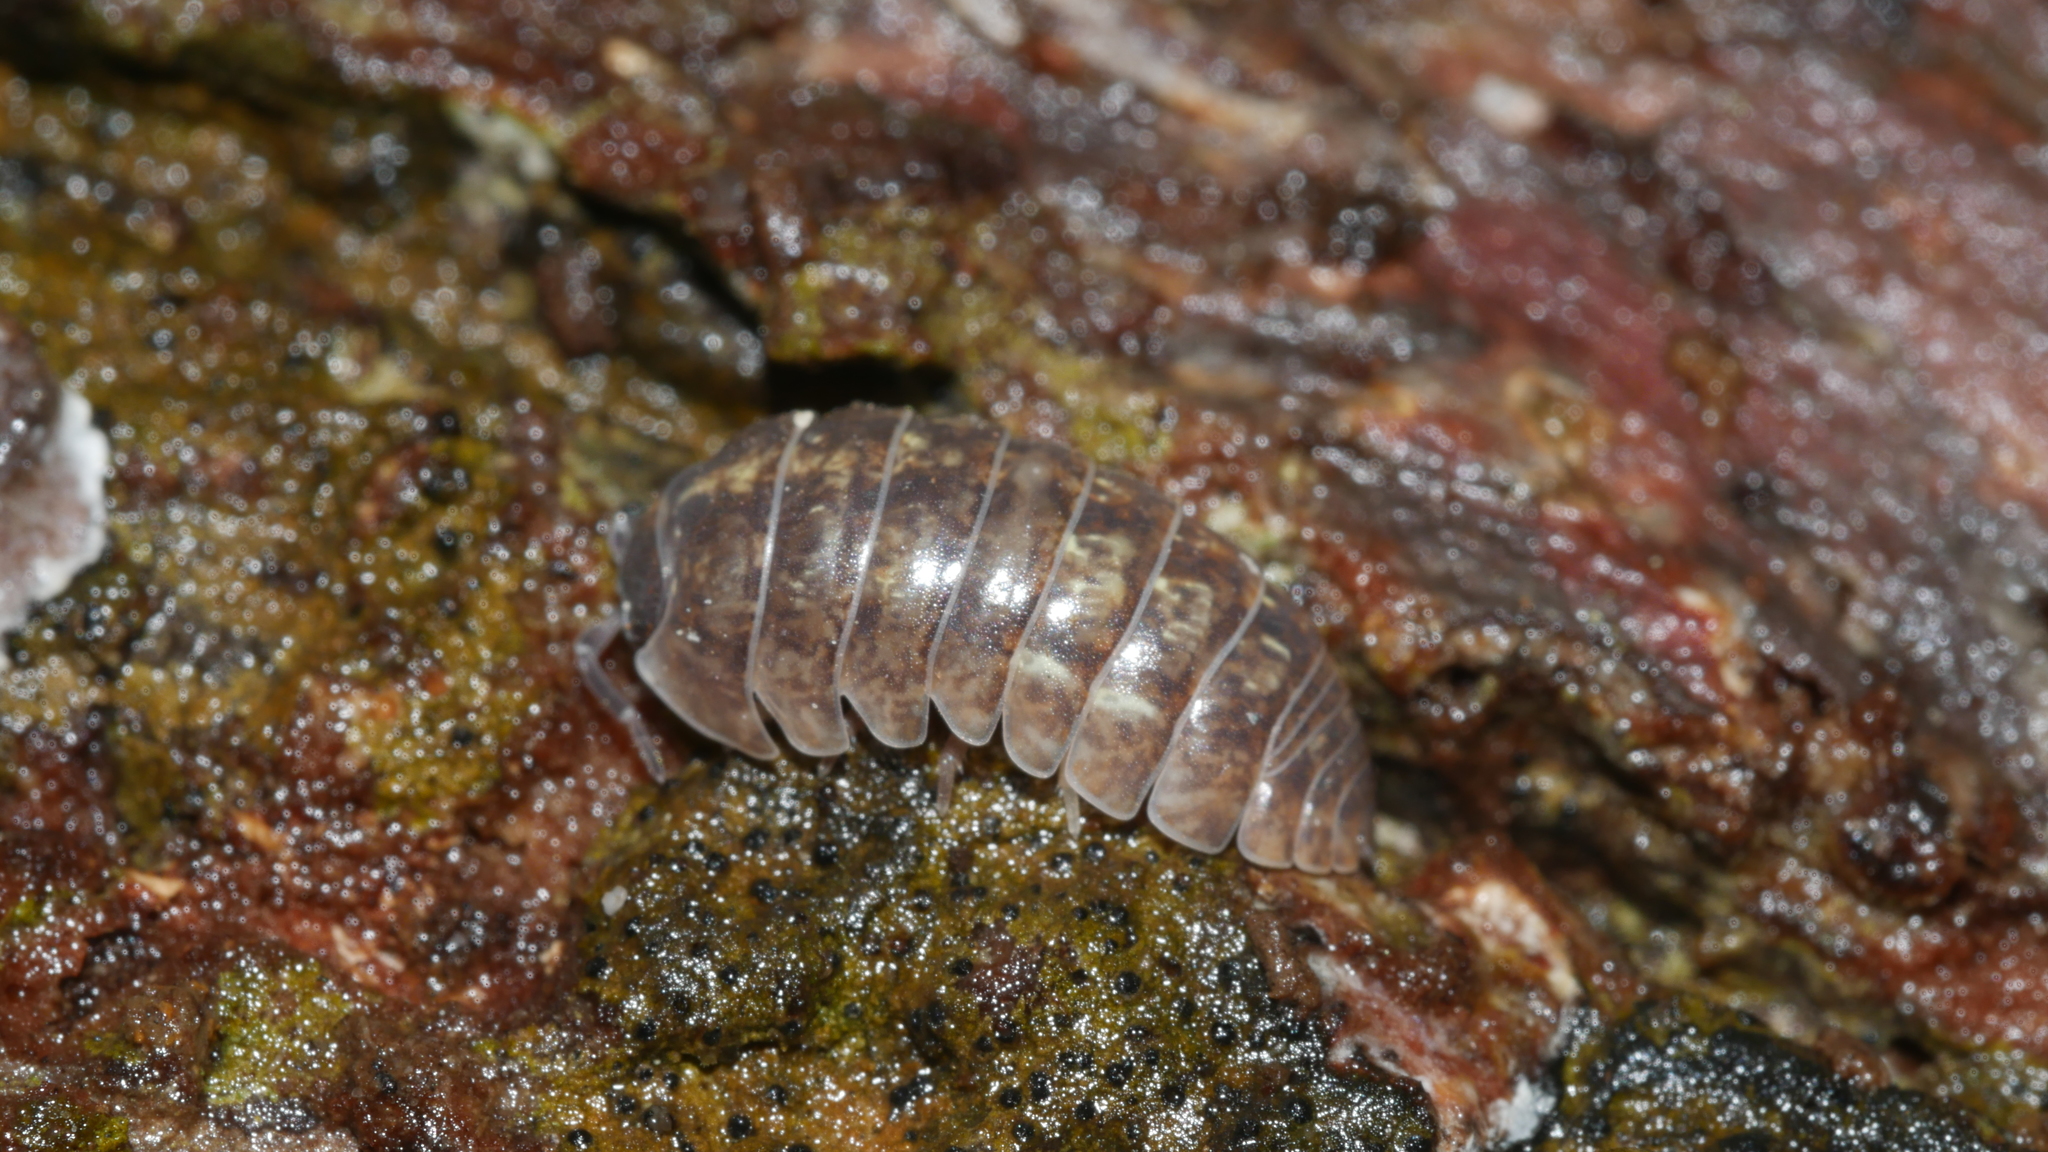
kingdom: Animalia
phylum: Arthropoda
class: Malacostraca
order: Isopoda
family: Armadillidiidae
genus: Armadillidium
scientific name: Armadillidium vulgare
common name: Common pill woodlouse
